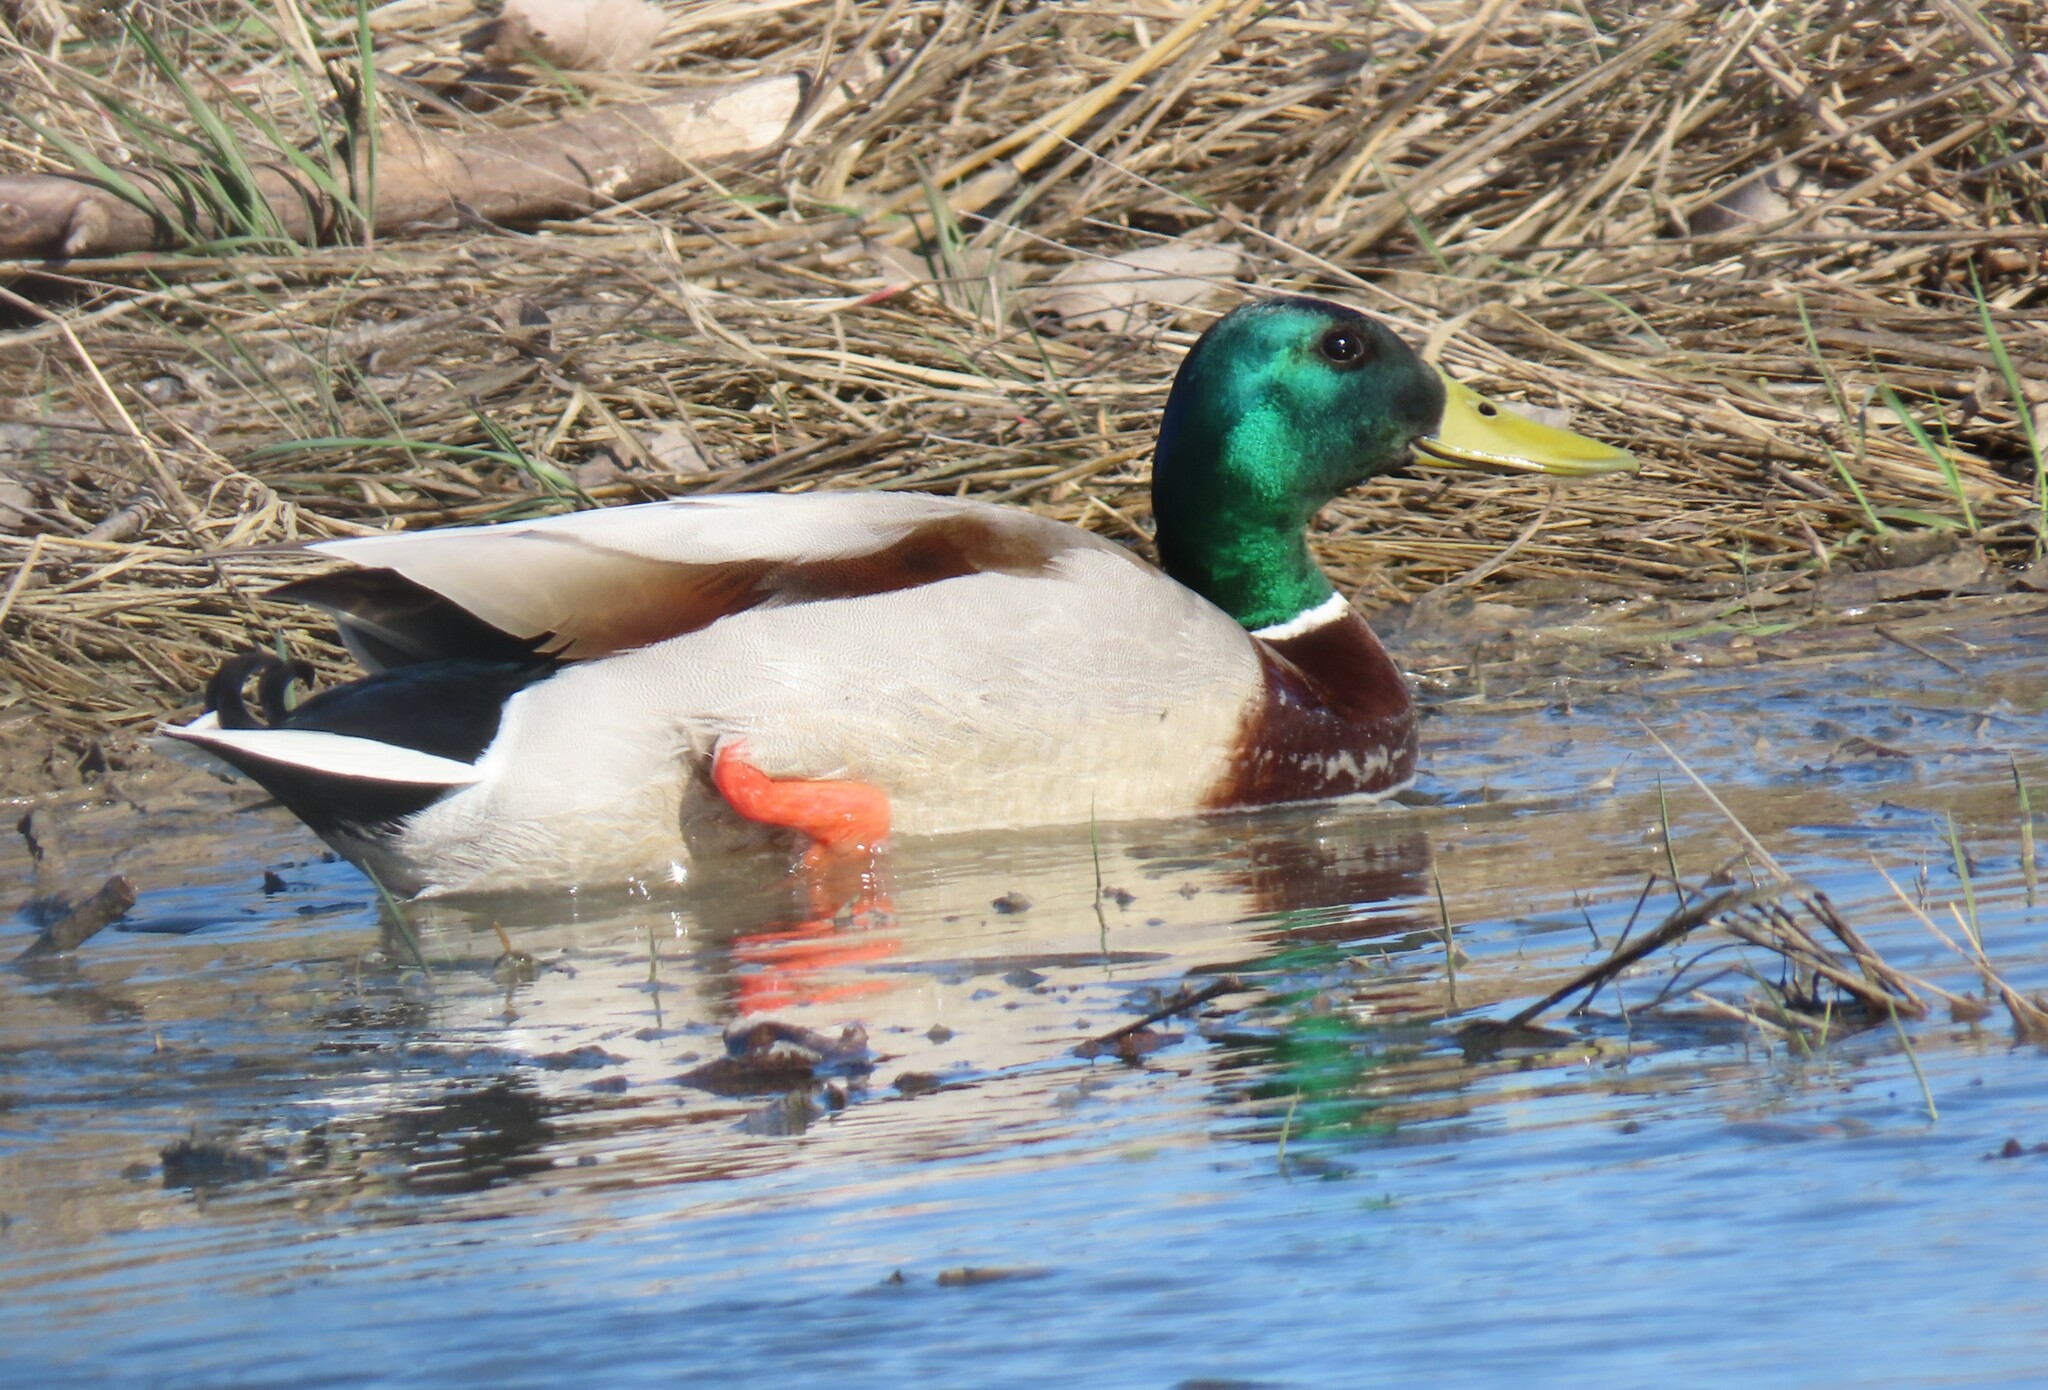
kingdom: Animalia
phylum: Chordata
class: Aves
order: Anseriformes
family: Anatidae
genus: Anas
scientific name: Anas platyrhynchos
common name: Mallard
